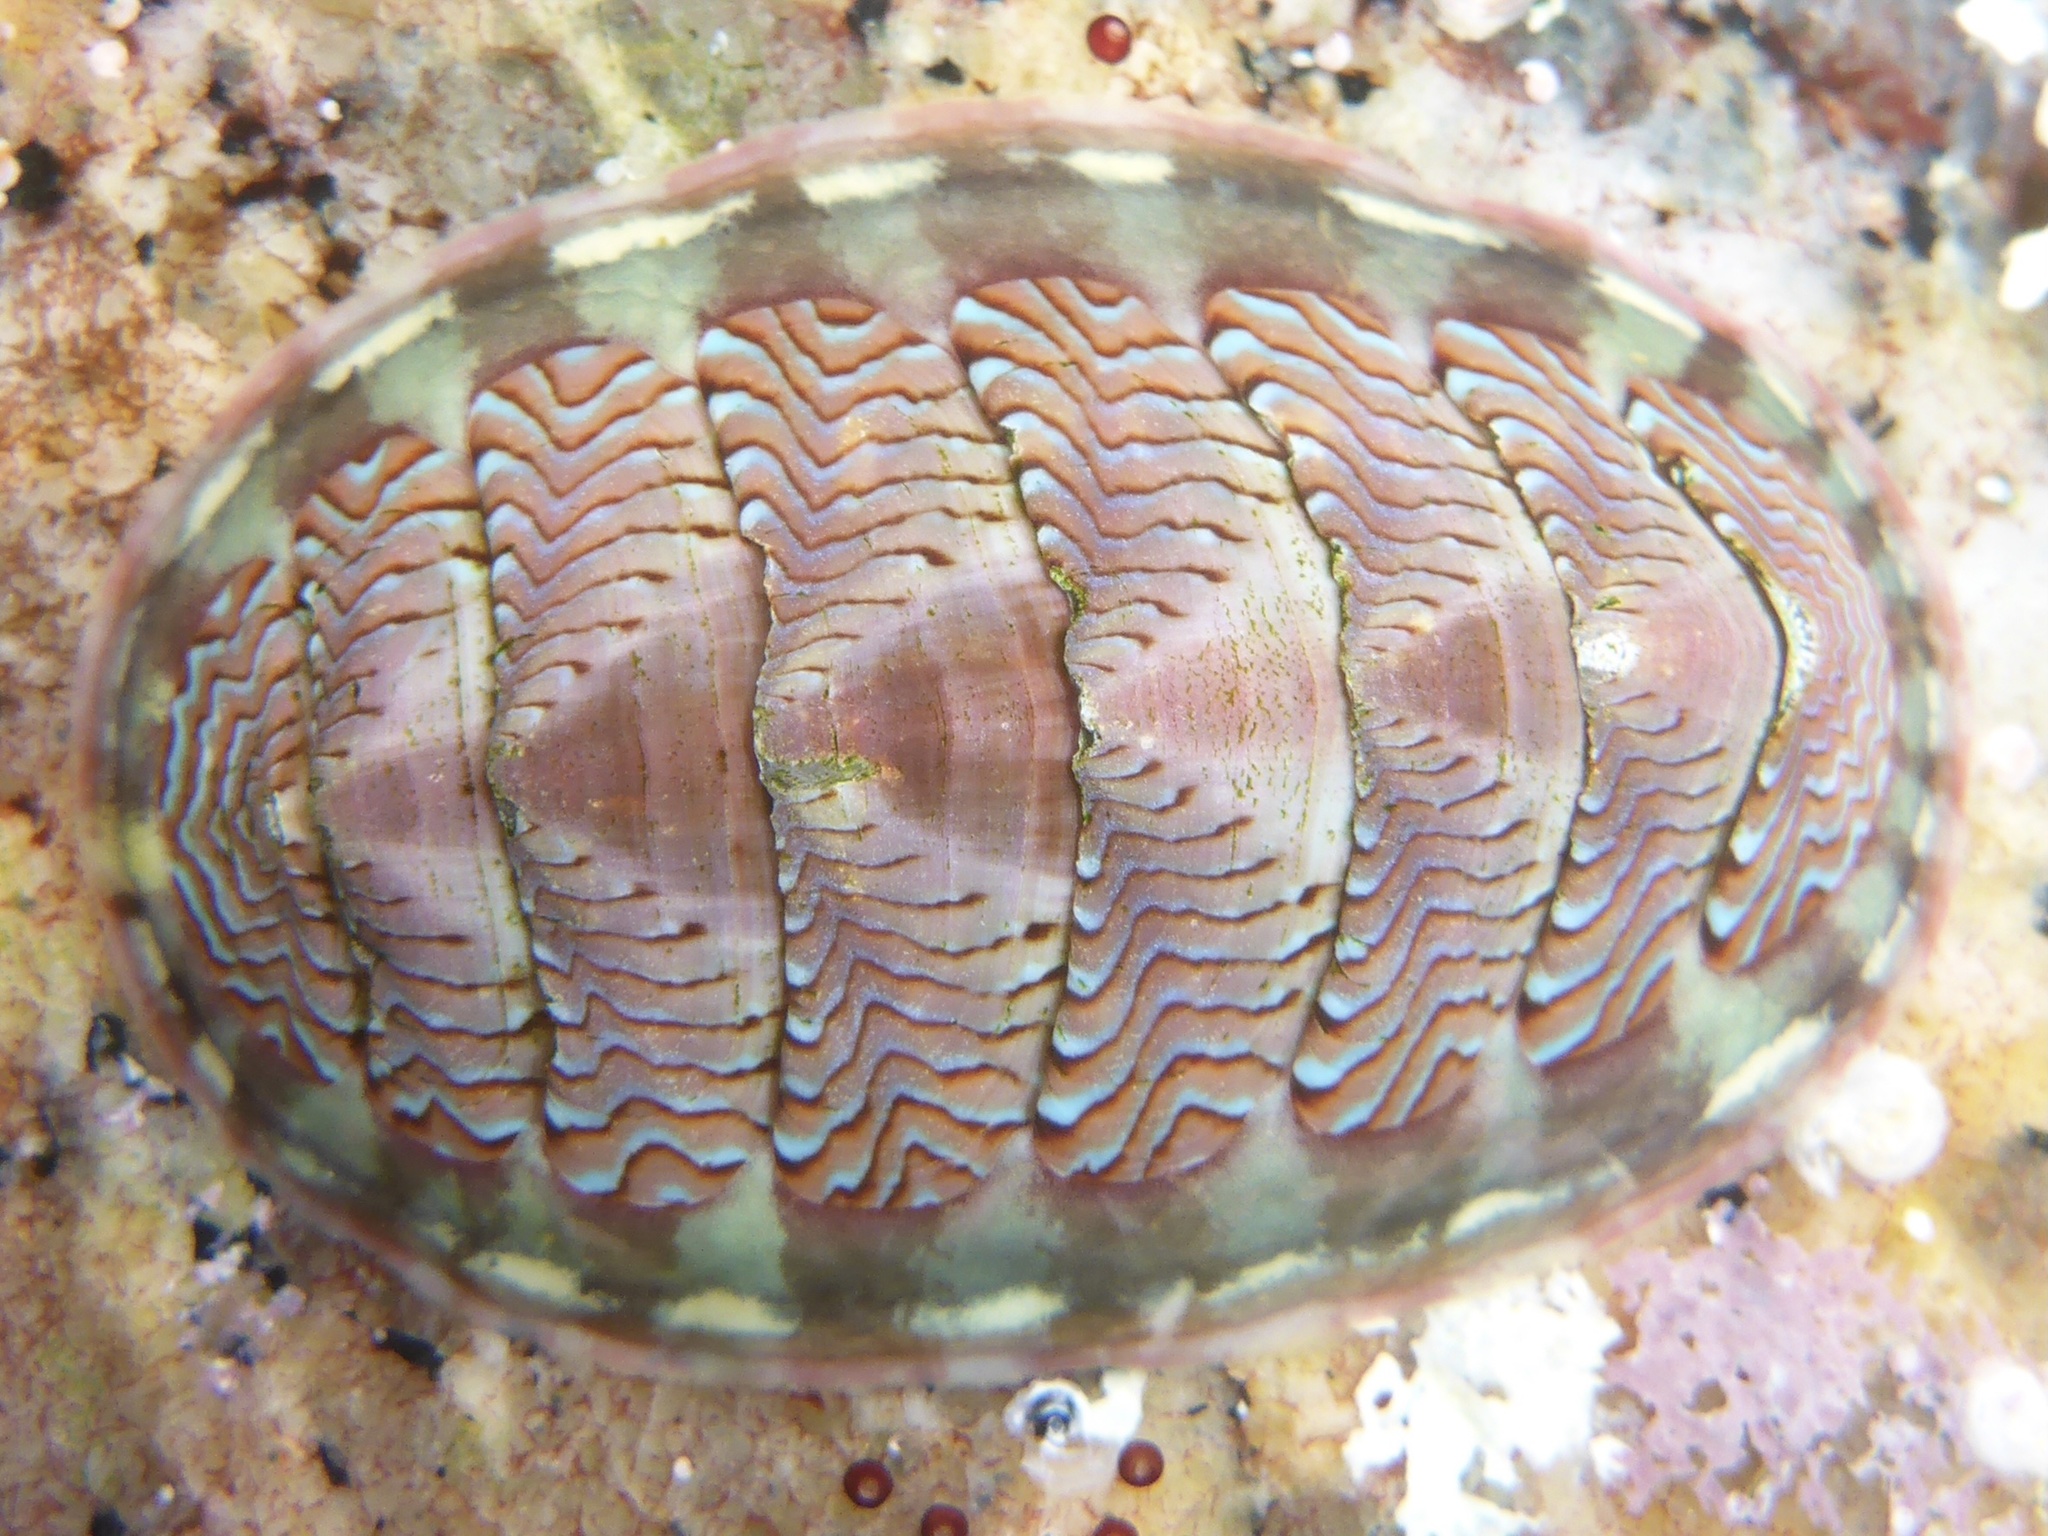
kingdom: Animalia
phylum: Mollusca
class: Polyplacophora
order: Chitonida
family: Tonicellidae
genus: Tonicella
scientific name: Tonicella lokii
